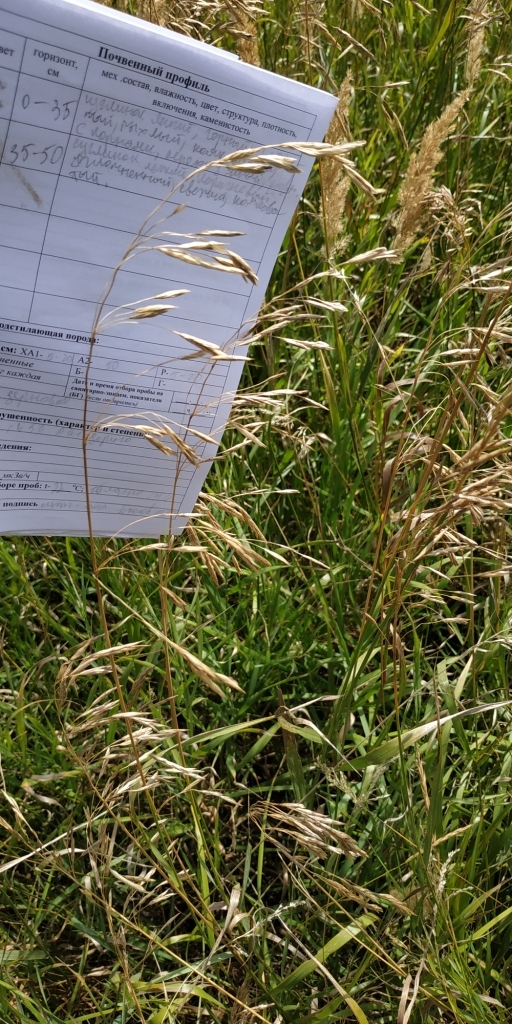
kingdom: Plantae
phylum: Tracheophyta
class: Liliopsida
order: Poales
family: Poaceae
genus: Bromus
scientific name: Bromus inermis
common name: Smooth brome
